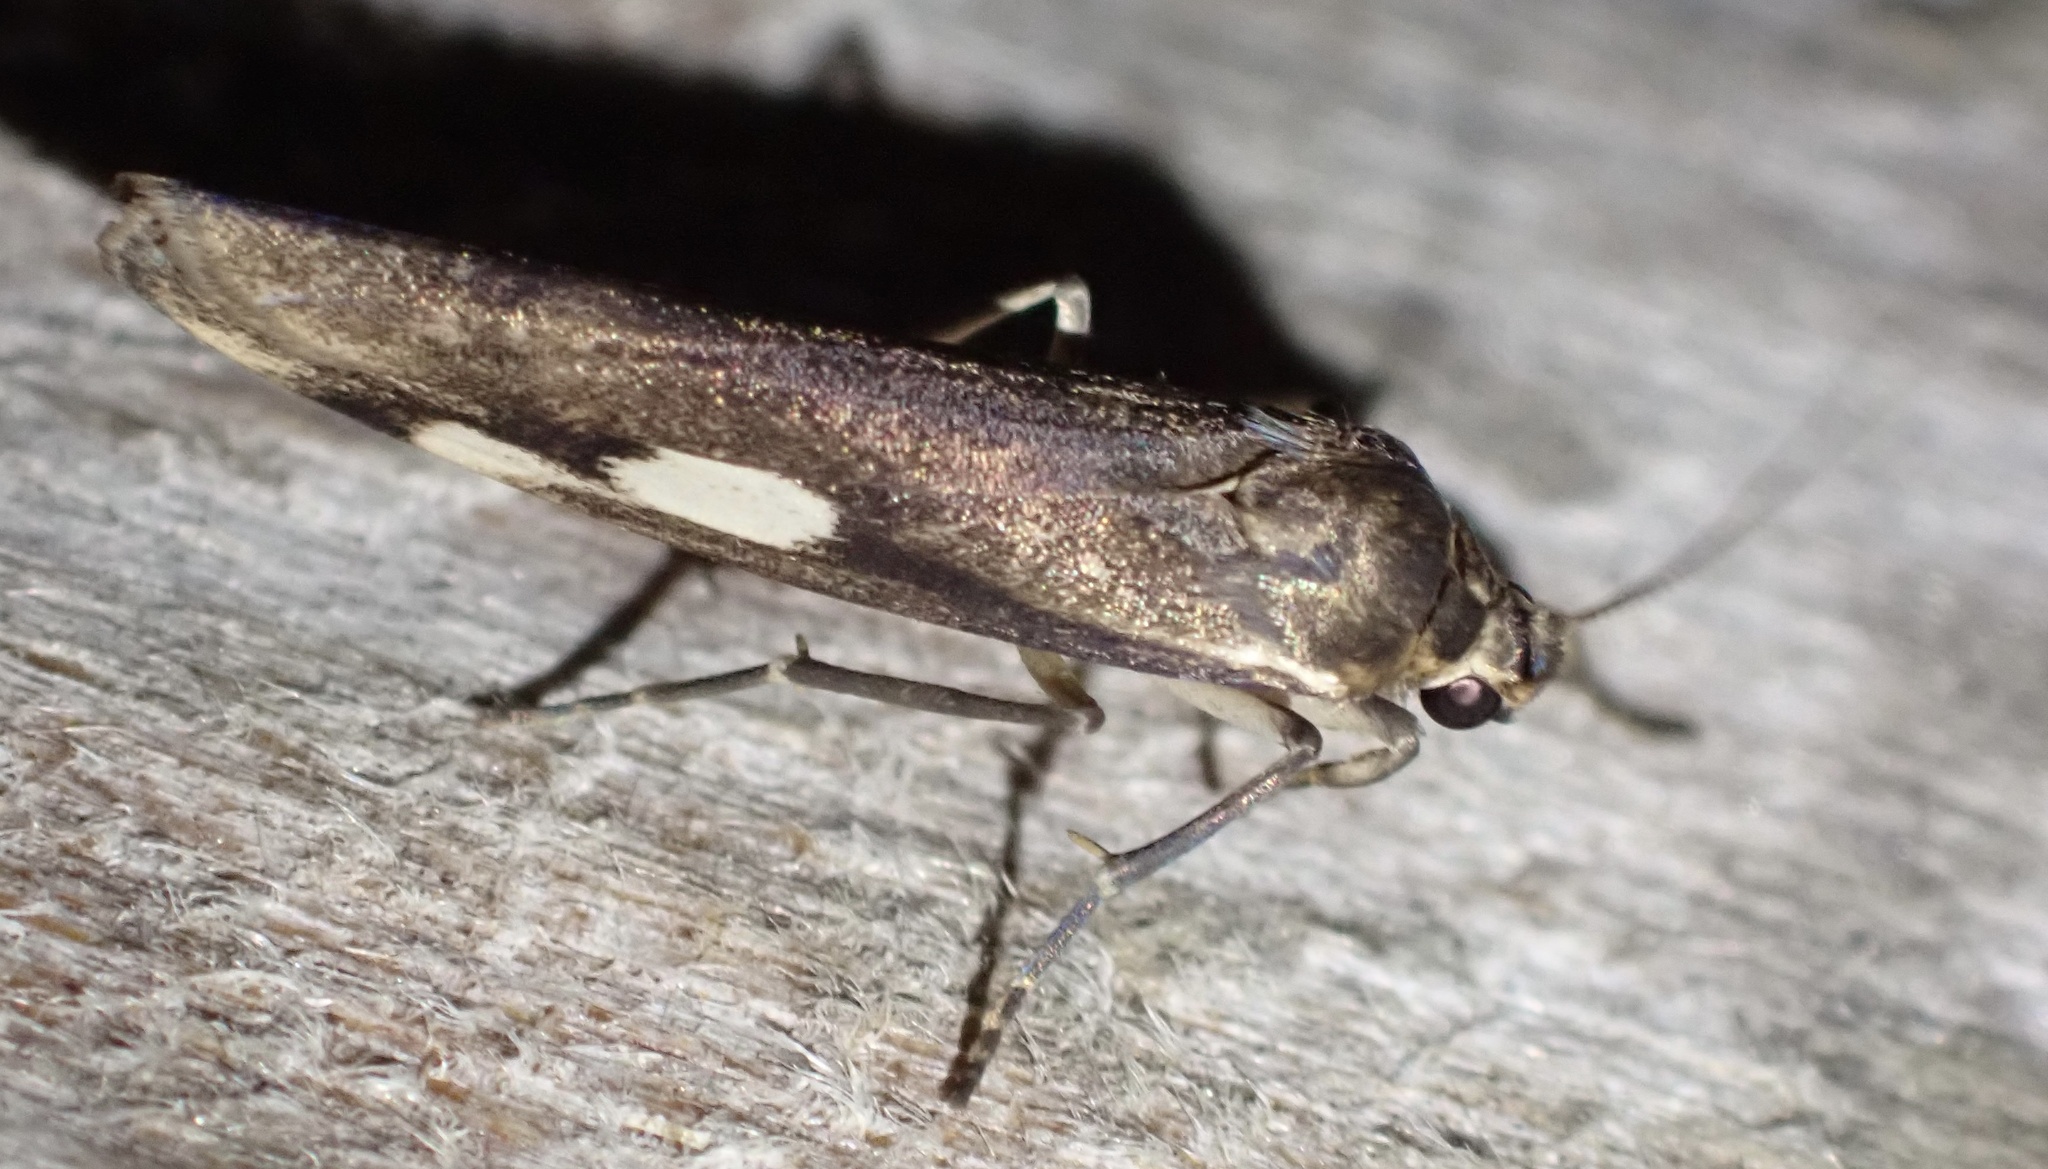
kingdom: Animalia
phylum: Arthropoda
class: Insecta
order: Lepidoptera
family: Erebidae
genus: Chrysoscota
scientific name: Chrysoscota albomaculata
